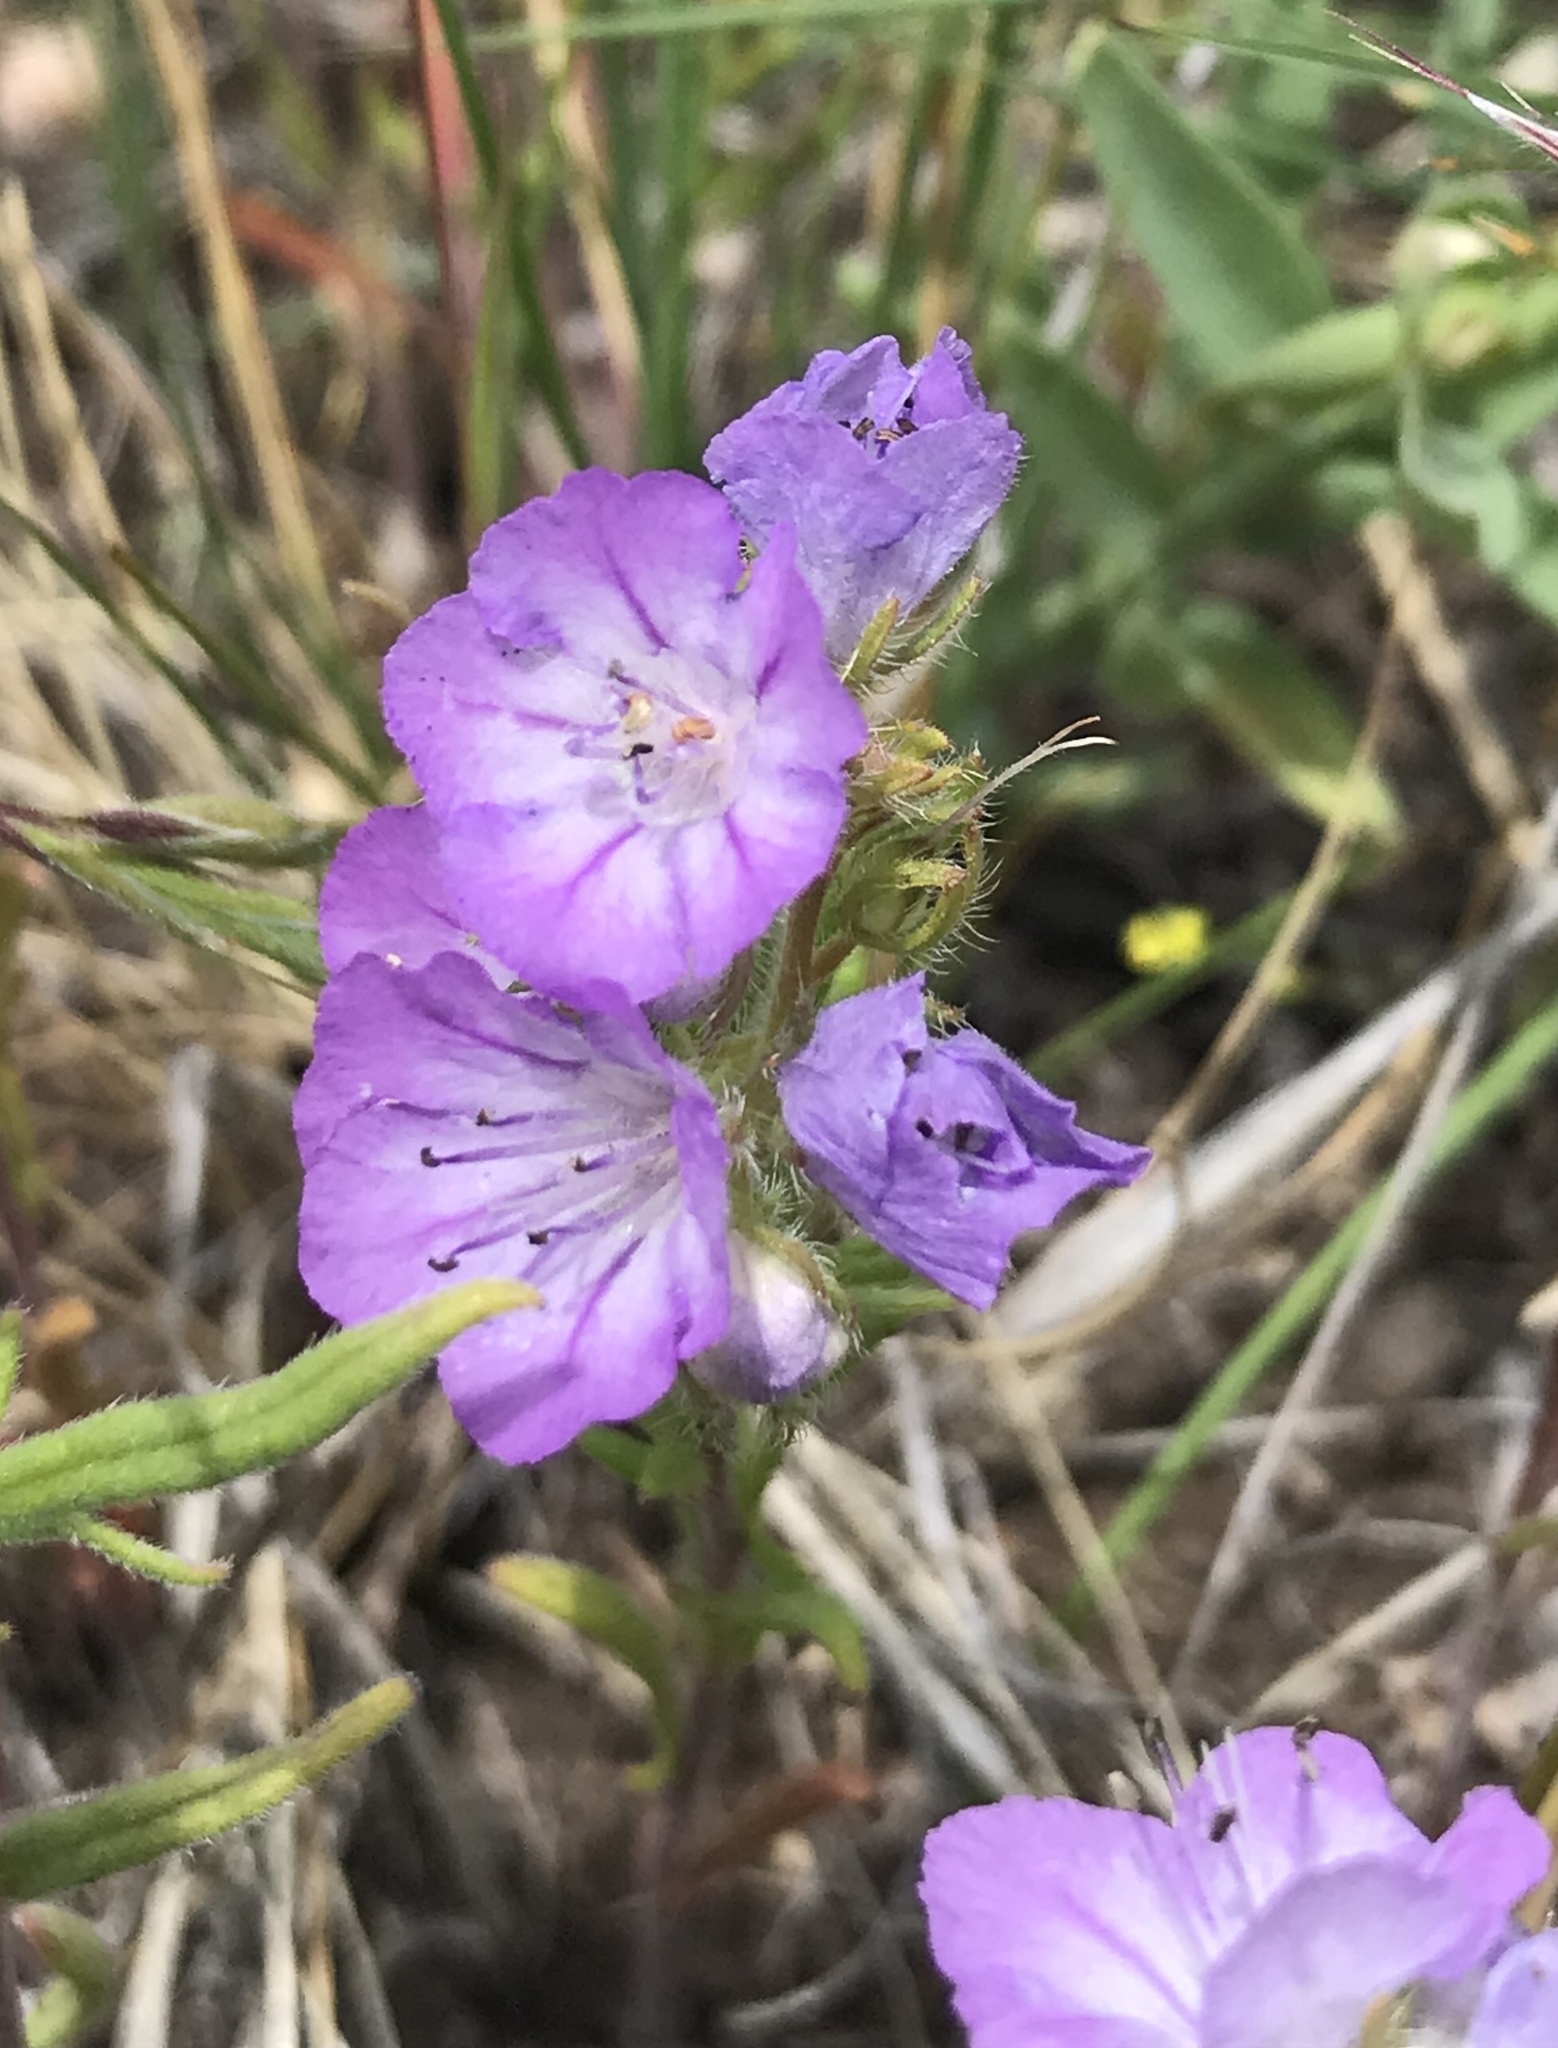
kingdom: Plantae
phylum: Tracheophyta
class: Magnoliopsida
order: Boraginales
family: Hydrophyllaceae
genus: Phacelia
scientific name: Phacelia linearis
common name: Linear-leaved phacelia
